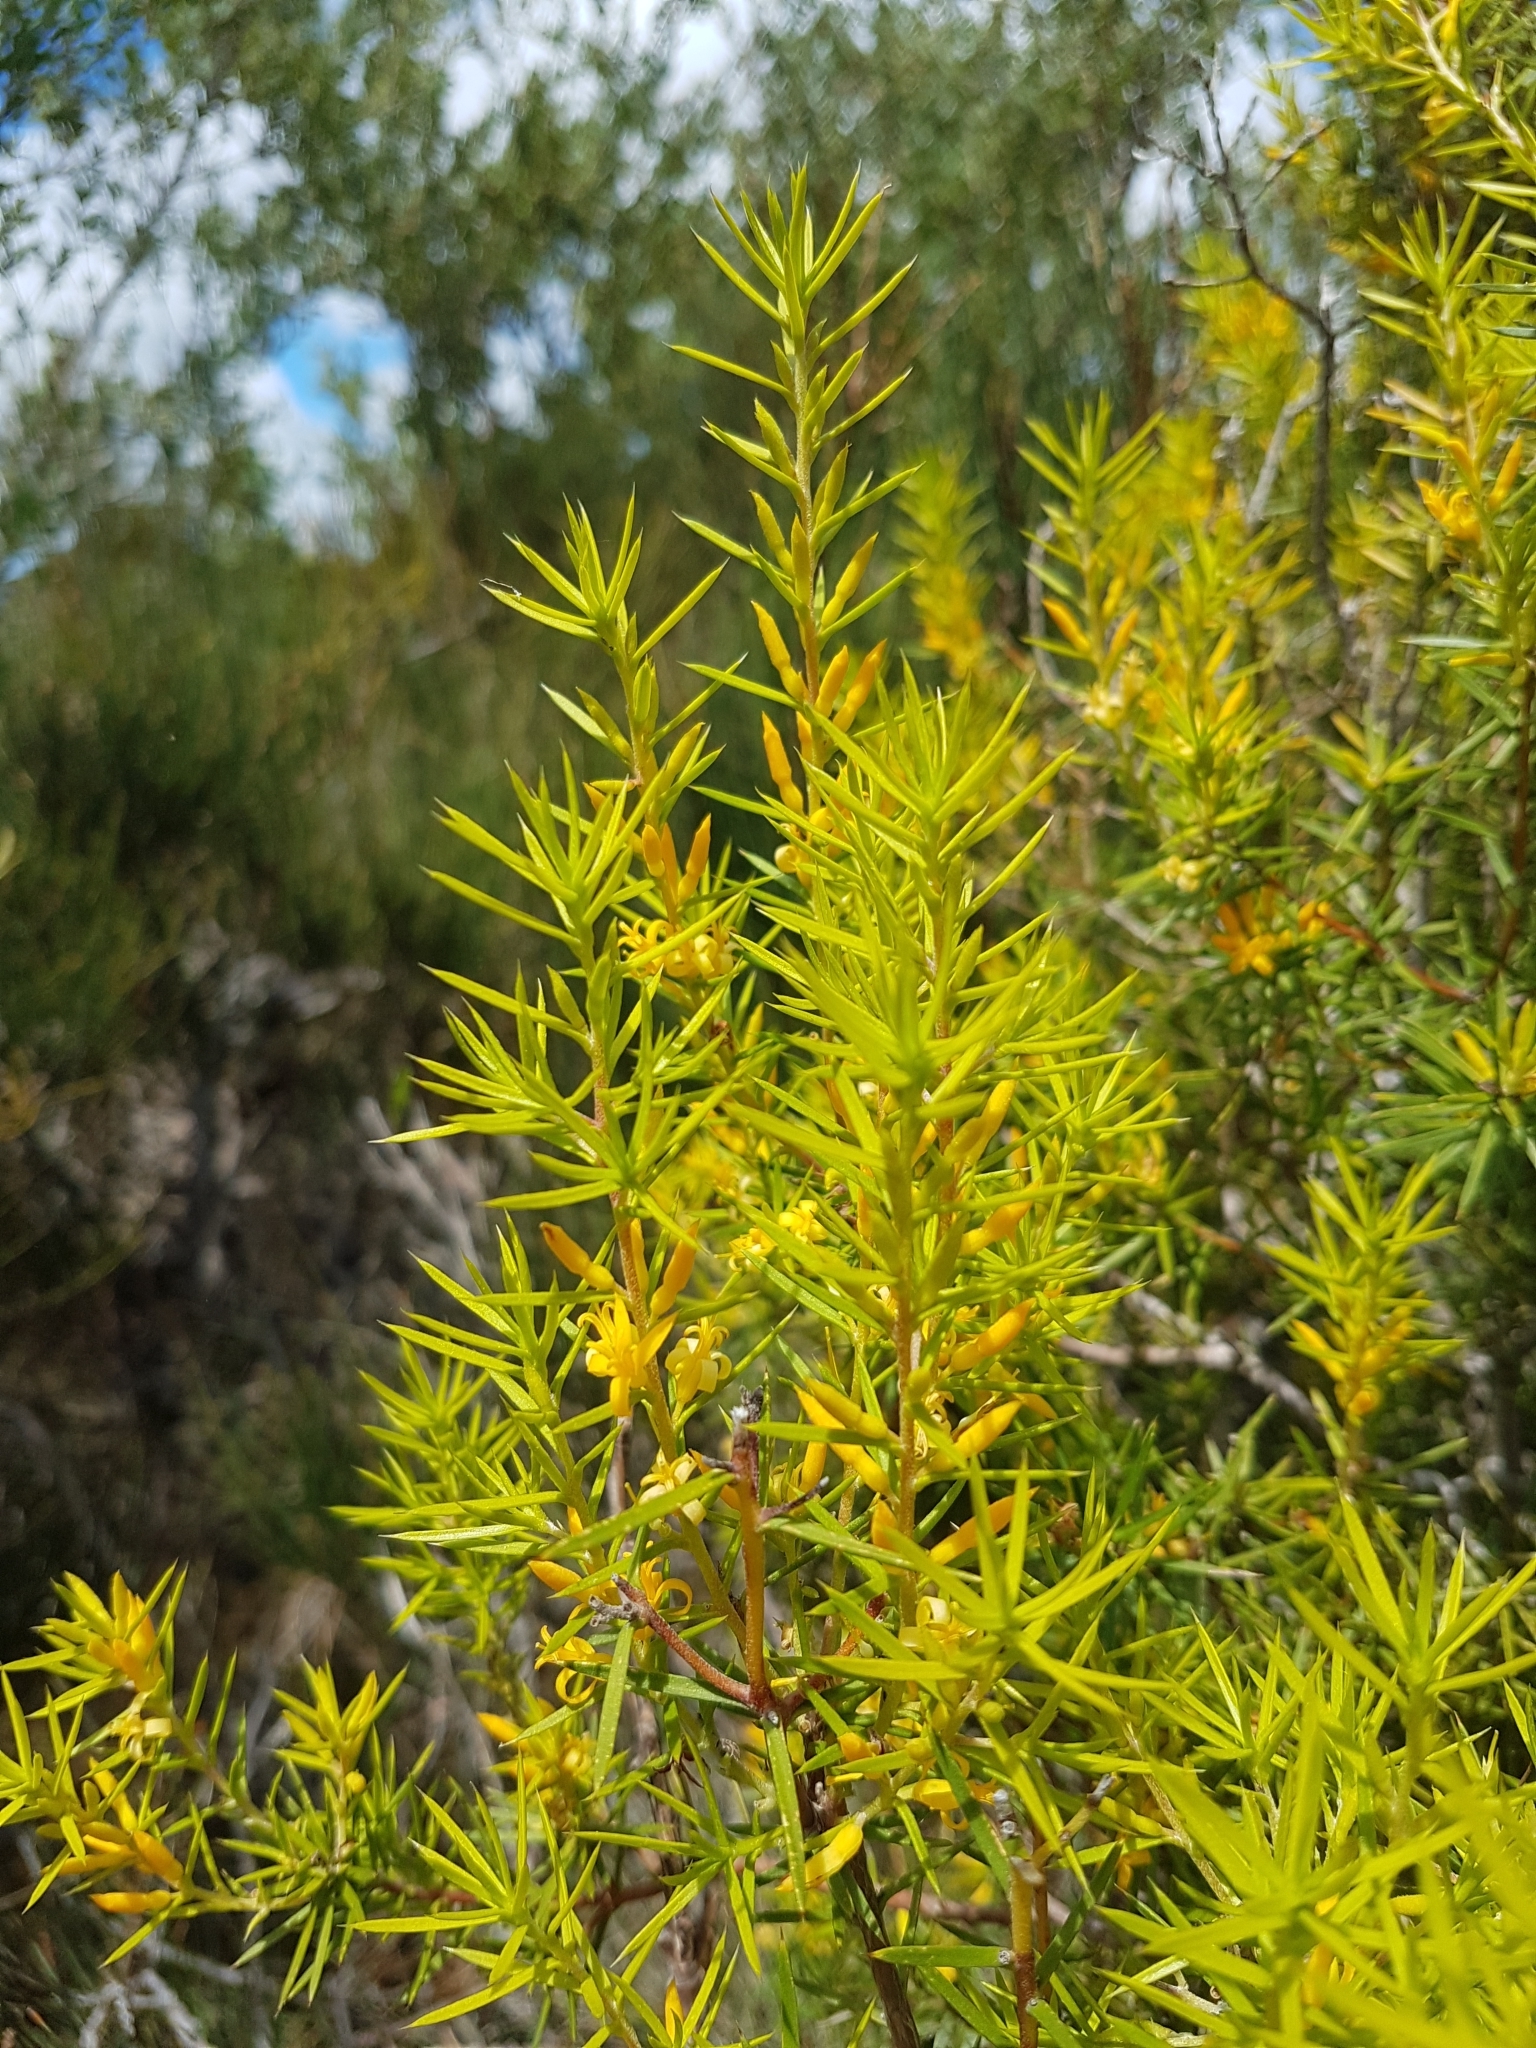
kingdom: Plantae
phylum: Tracheophyta
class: Magnoliopsida
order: Proteales
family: Proteaceae
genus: Persoonia
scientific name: Persoonia juniperina
